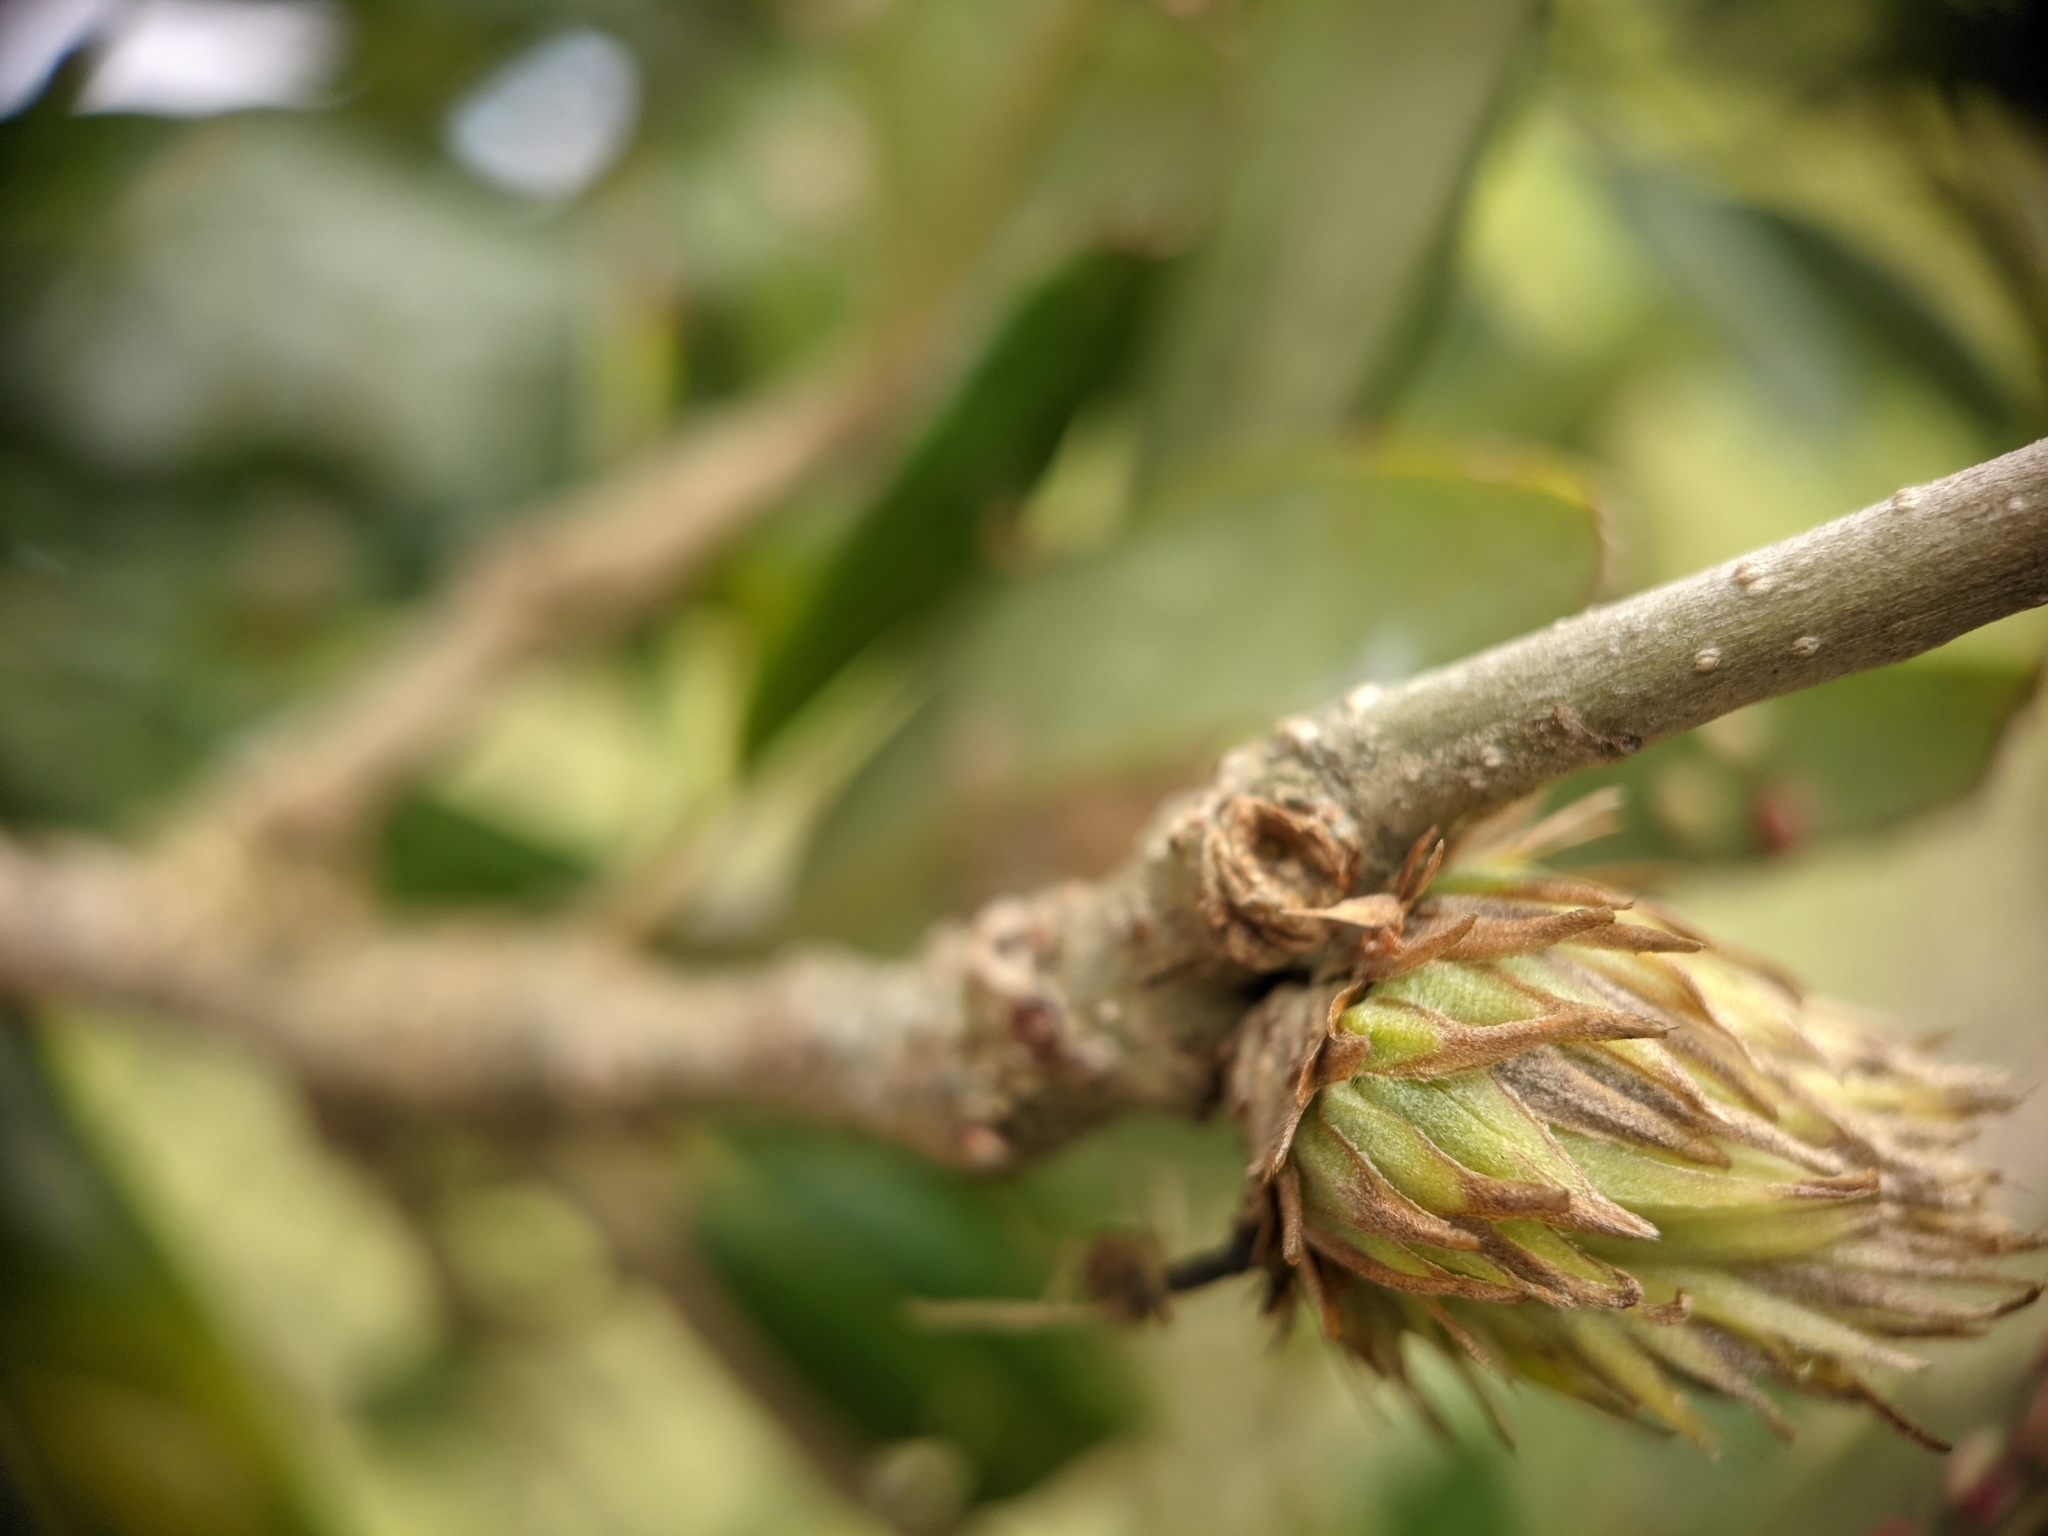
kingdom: Animalia
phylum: Arthropoda
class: Insecta
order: Hymenoptera
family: Cynipidae
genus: Andricus
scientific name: Andricus quercusfoliatus
